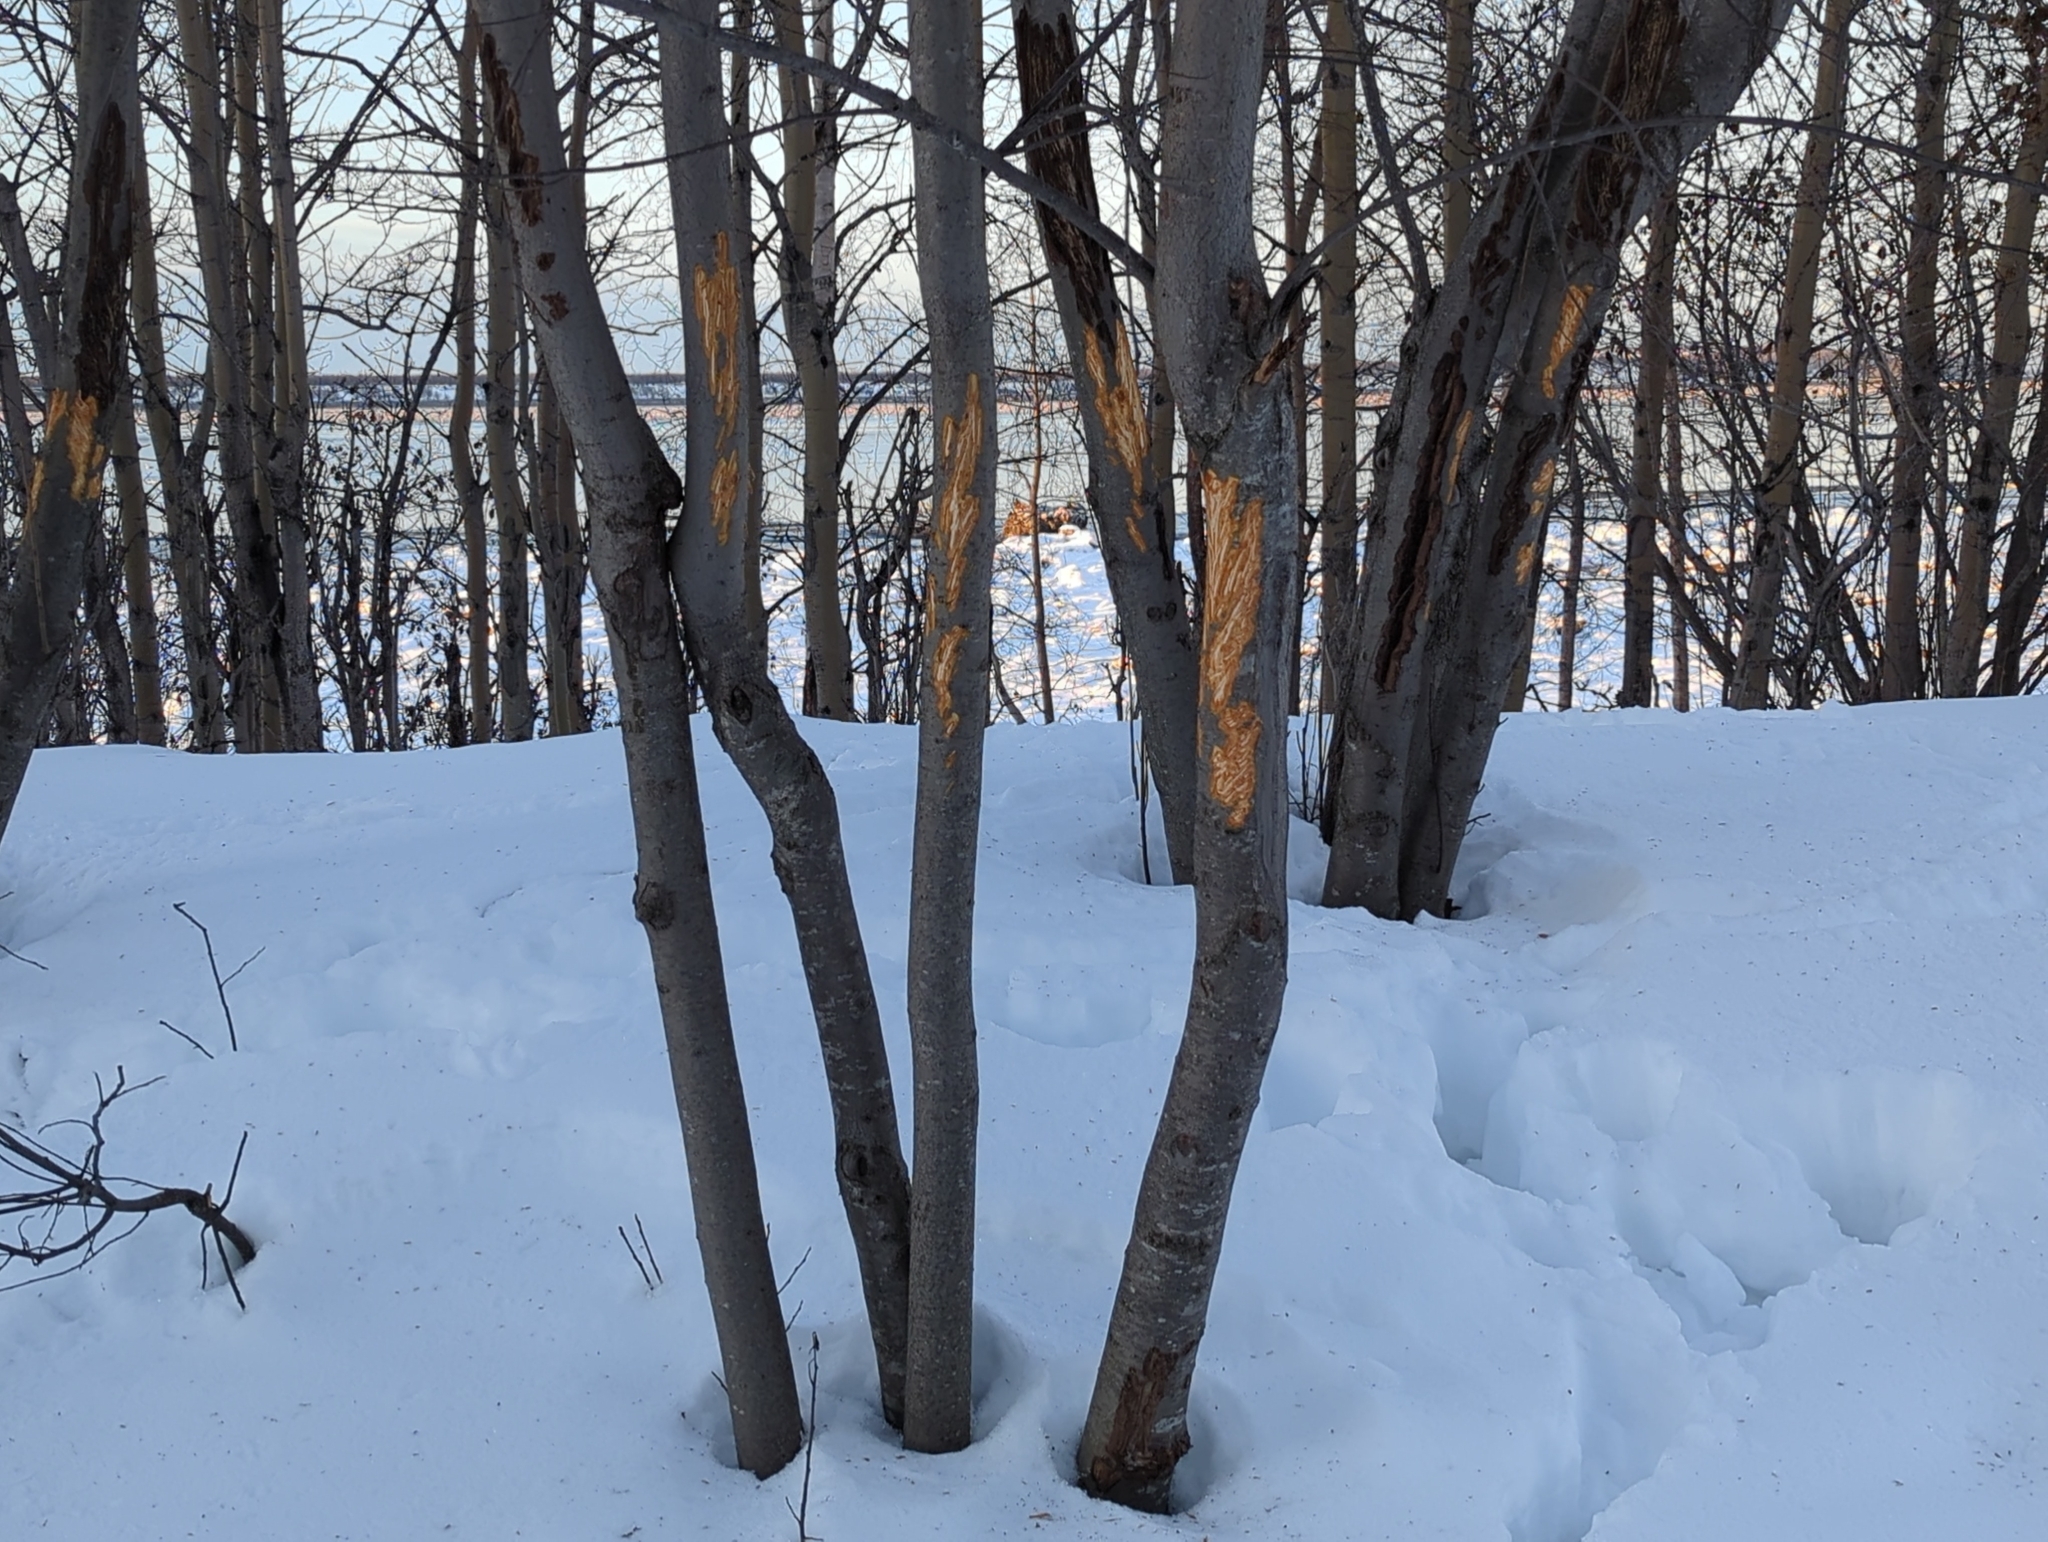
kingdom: Animalia
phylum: Chordata
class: Mammalia
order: Artiodactyla
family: Cervidae
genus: Alces
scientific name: Alces alces
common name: Moose
